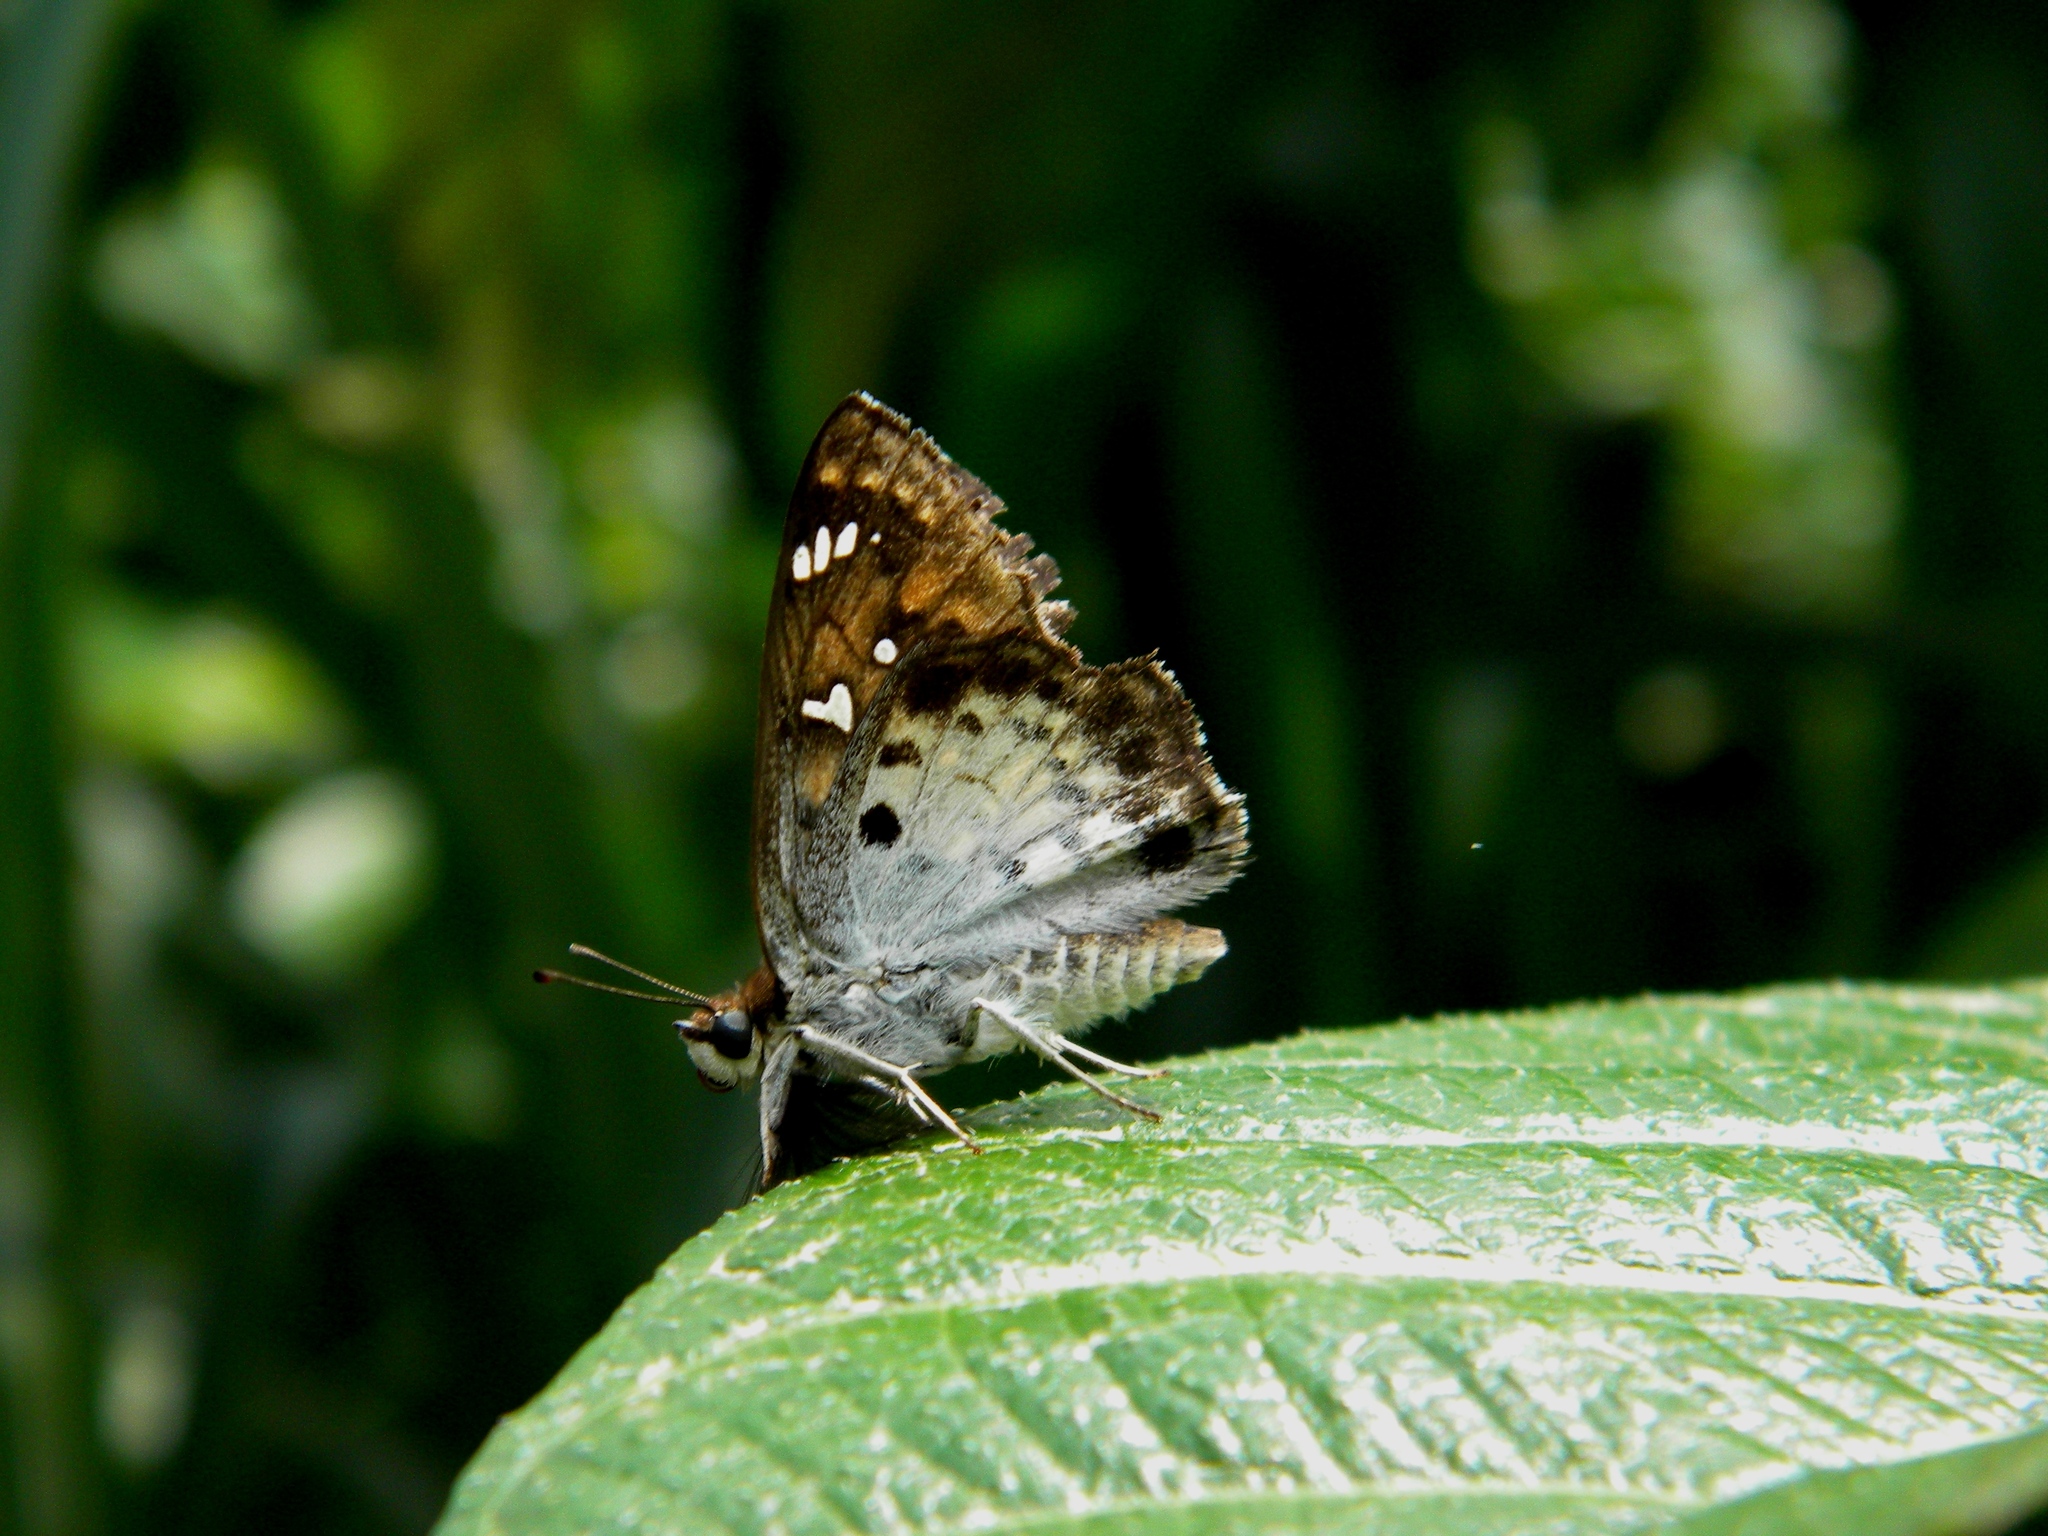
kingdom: Animalia
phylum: Arthropoda
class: Insecta
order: Lepidoptera
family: Hesperiidae
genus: Caprona
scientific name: Caprona ransonnettii
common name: Golden angle
